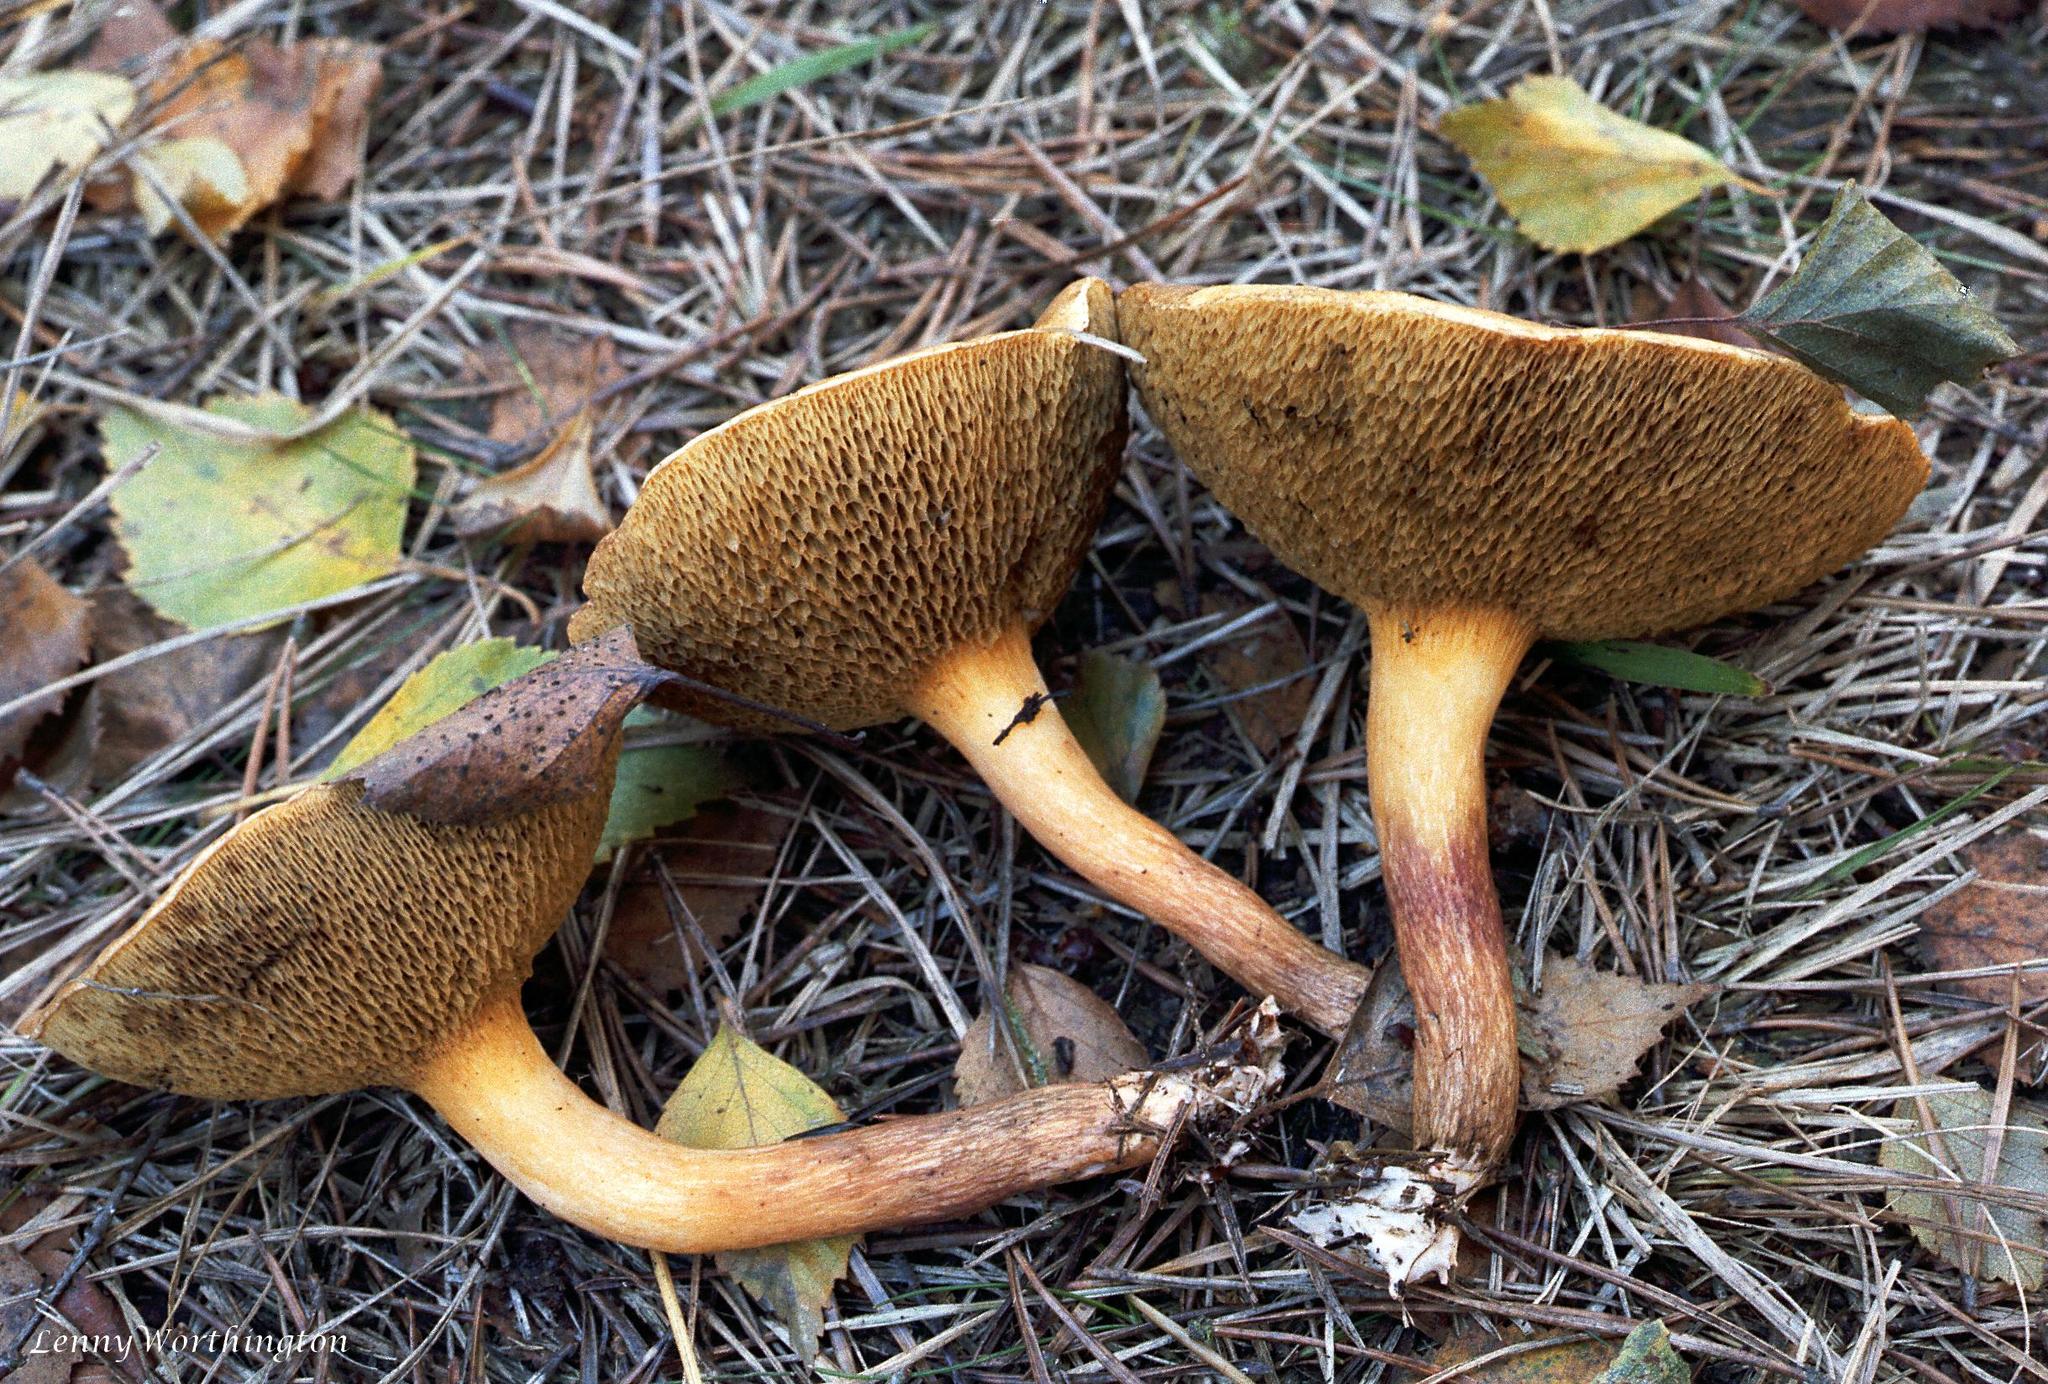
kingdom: Fungi
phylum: Basidiomycota
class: Agaricomycetes
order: Boletales
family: Suillaceae
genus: Suillus
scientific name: Suillus bovinus
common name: Bovine bolete
